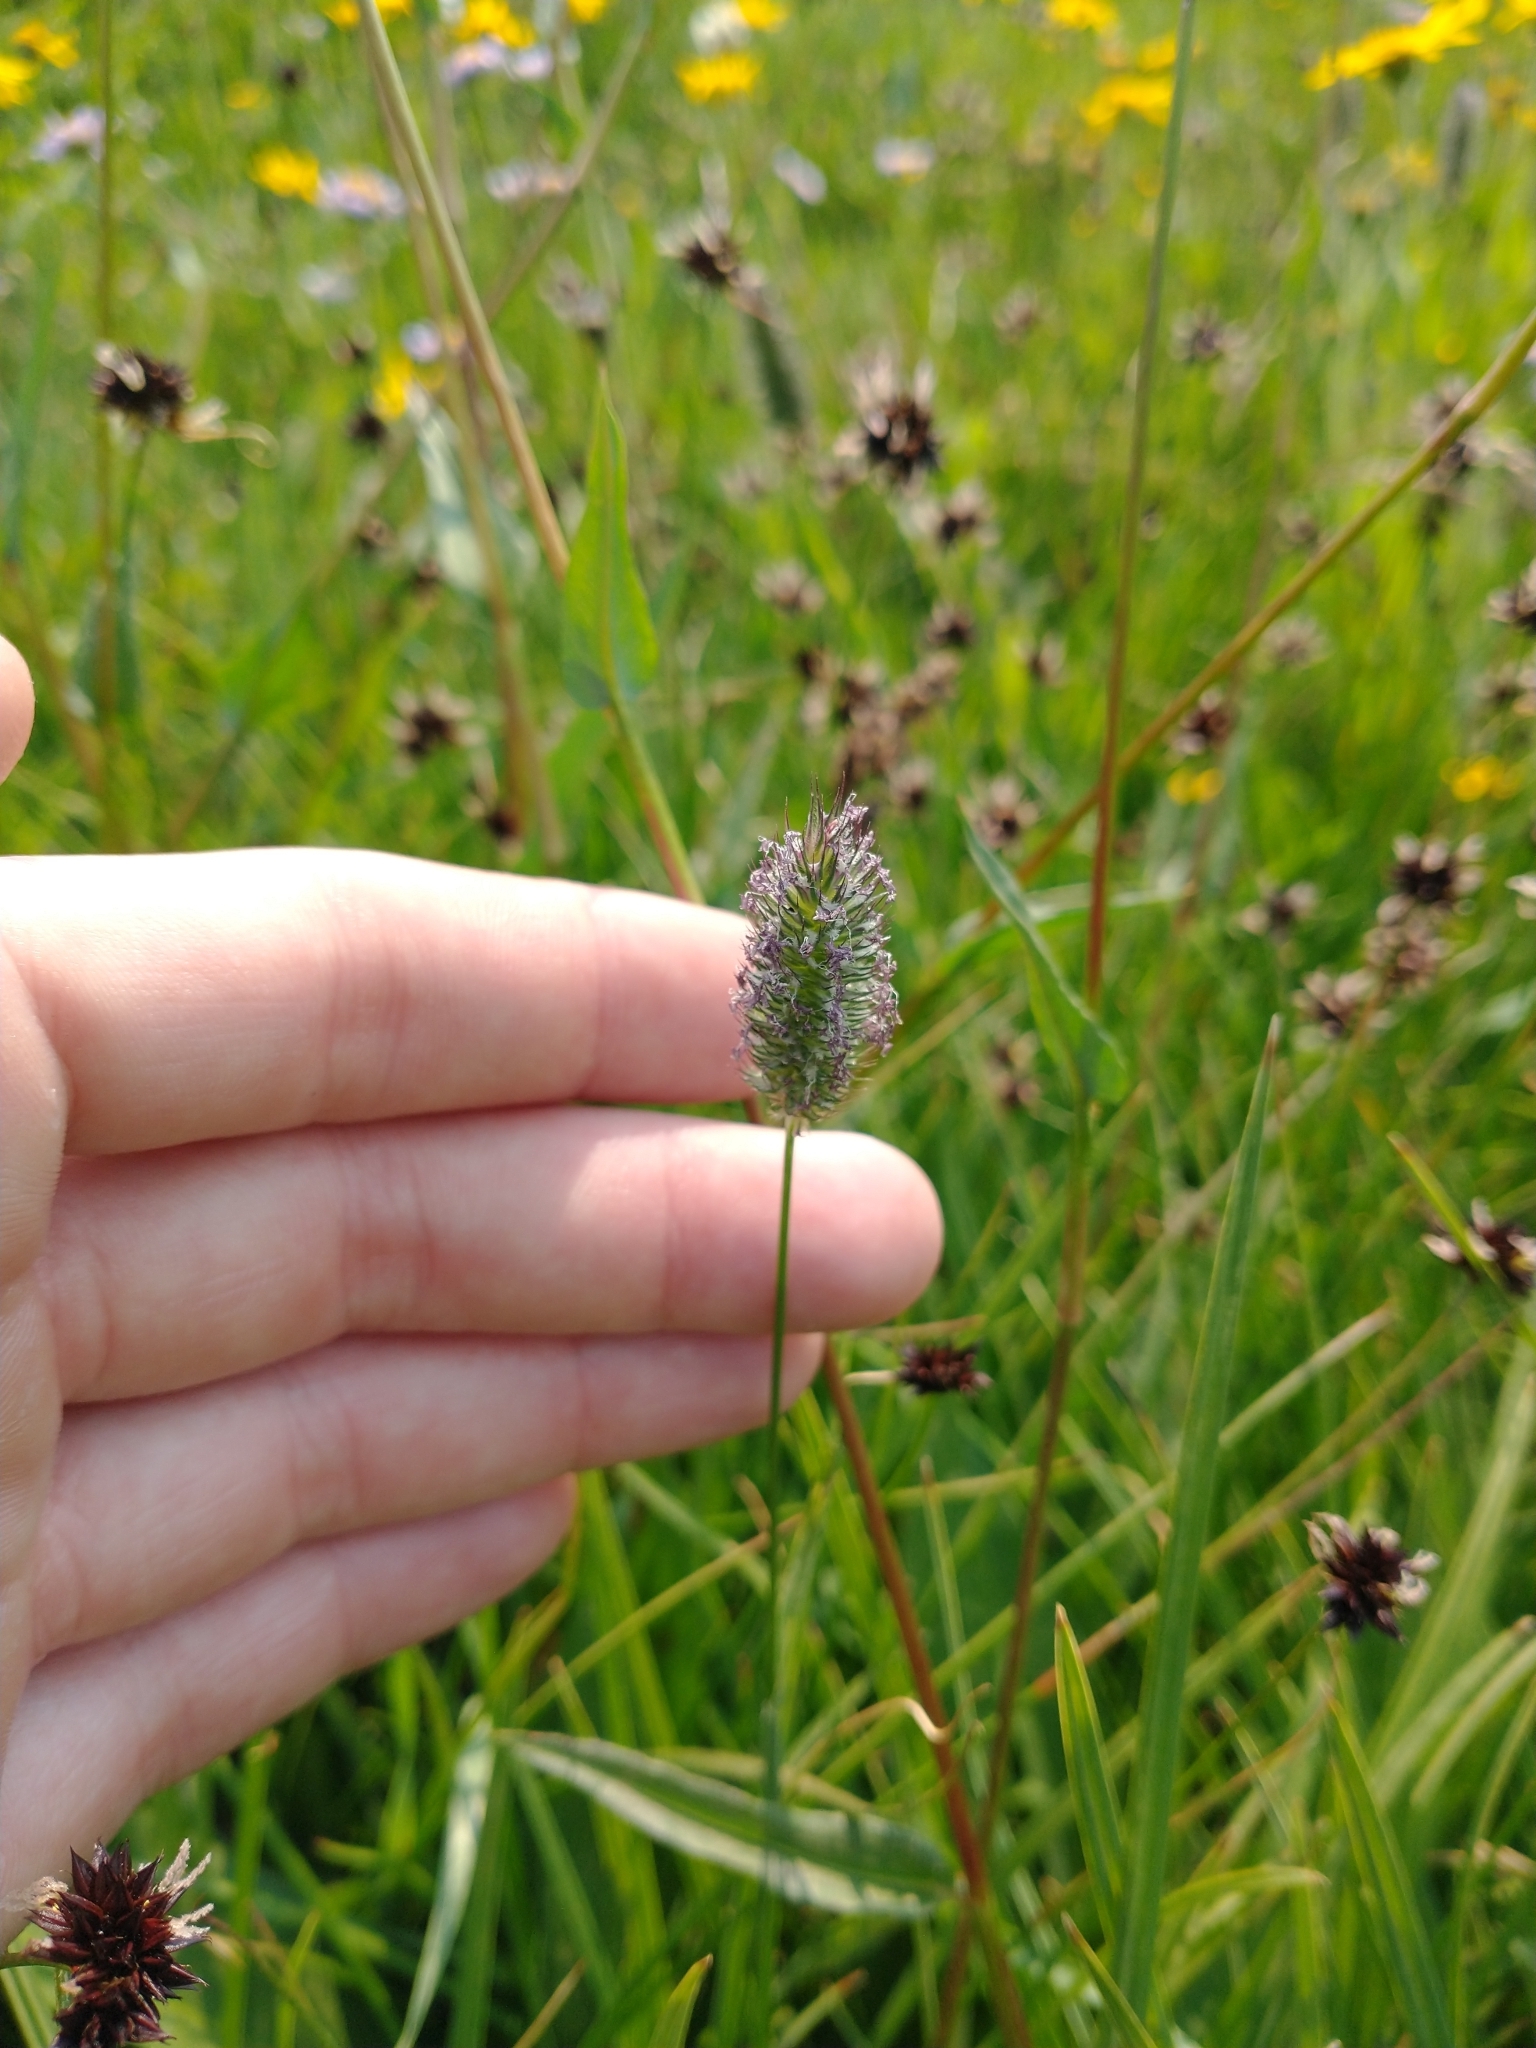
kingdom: Plantae
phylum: Tracheophyta
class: Liliopsida
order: Poales
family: Poaceae
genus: Phleum
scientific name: Phleum alpinum
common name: Alpine cat's-tail
